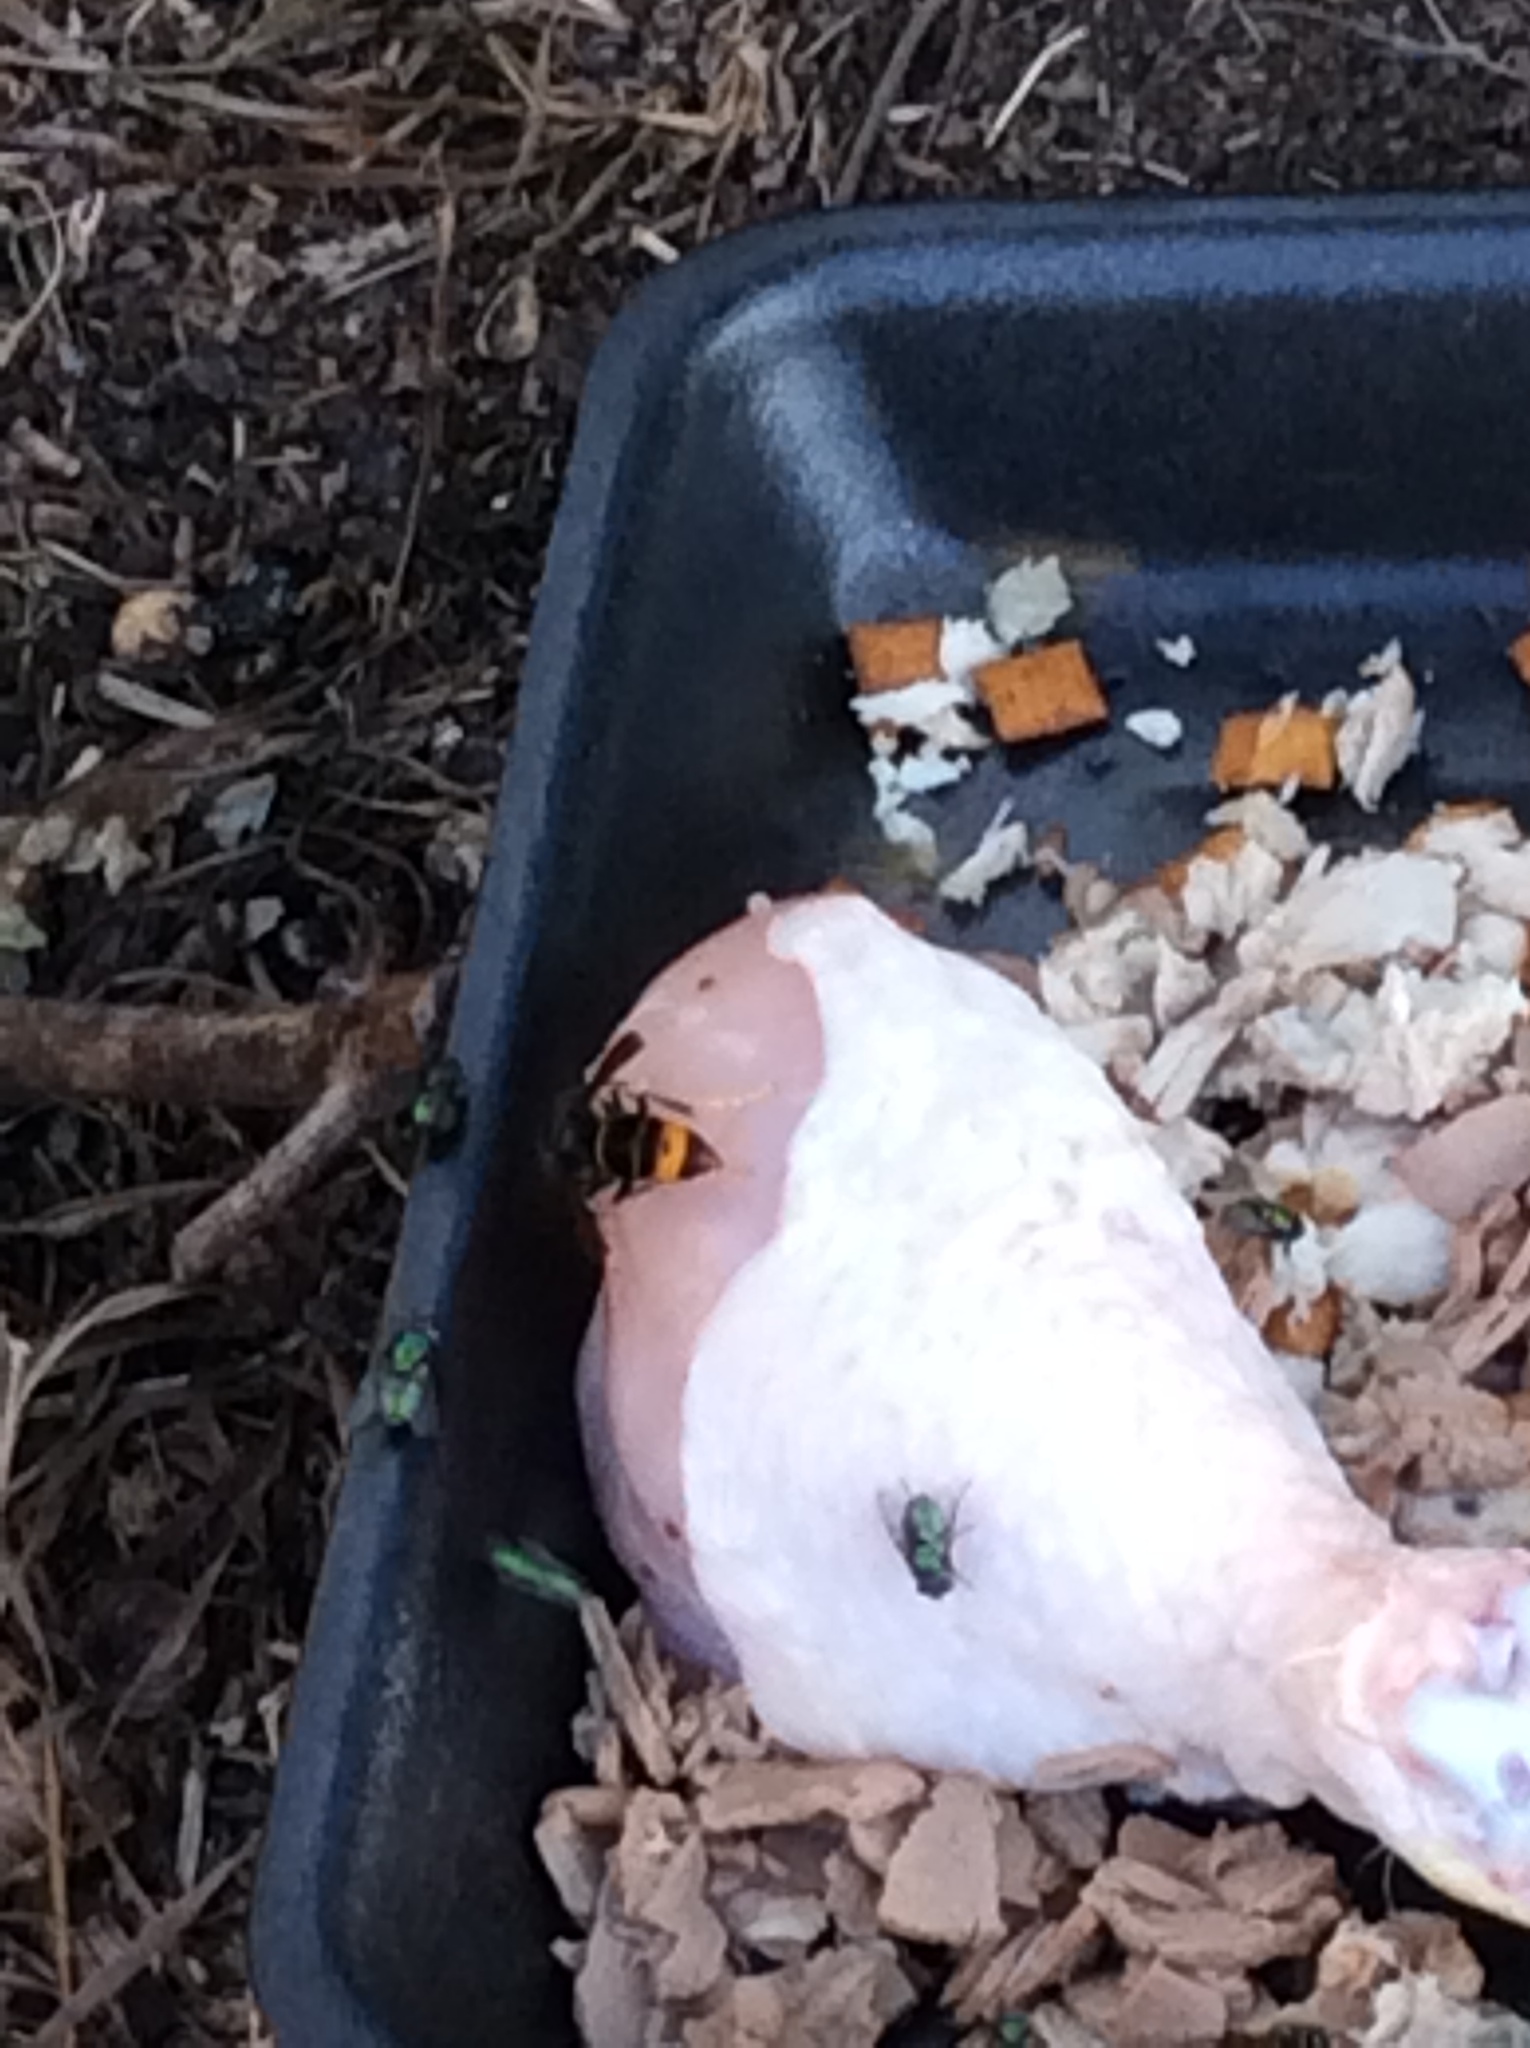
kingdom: Animalia
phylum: Arthropoda
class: Insecta
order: Hymenoptera
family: Vespidae
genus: Vespa
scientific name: Vespa velutina
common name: Asian hornet
